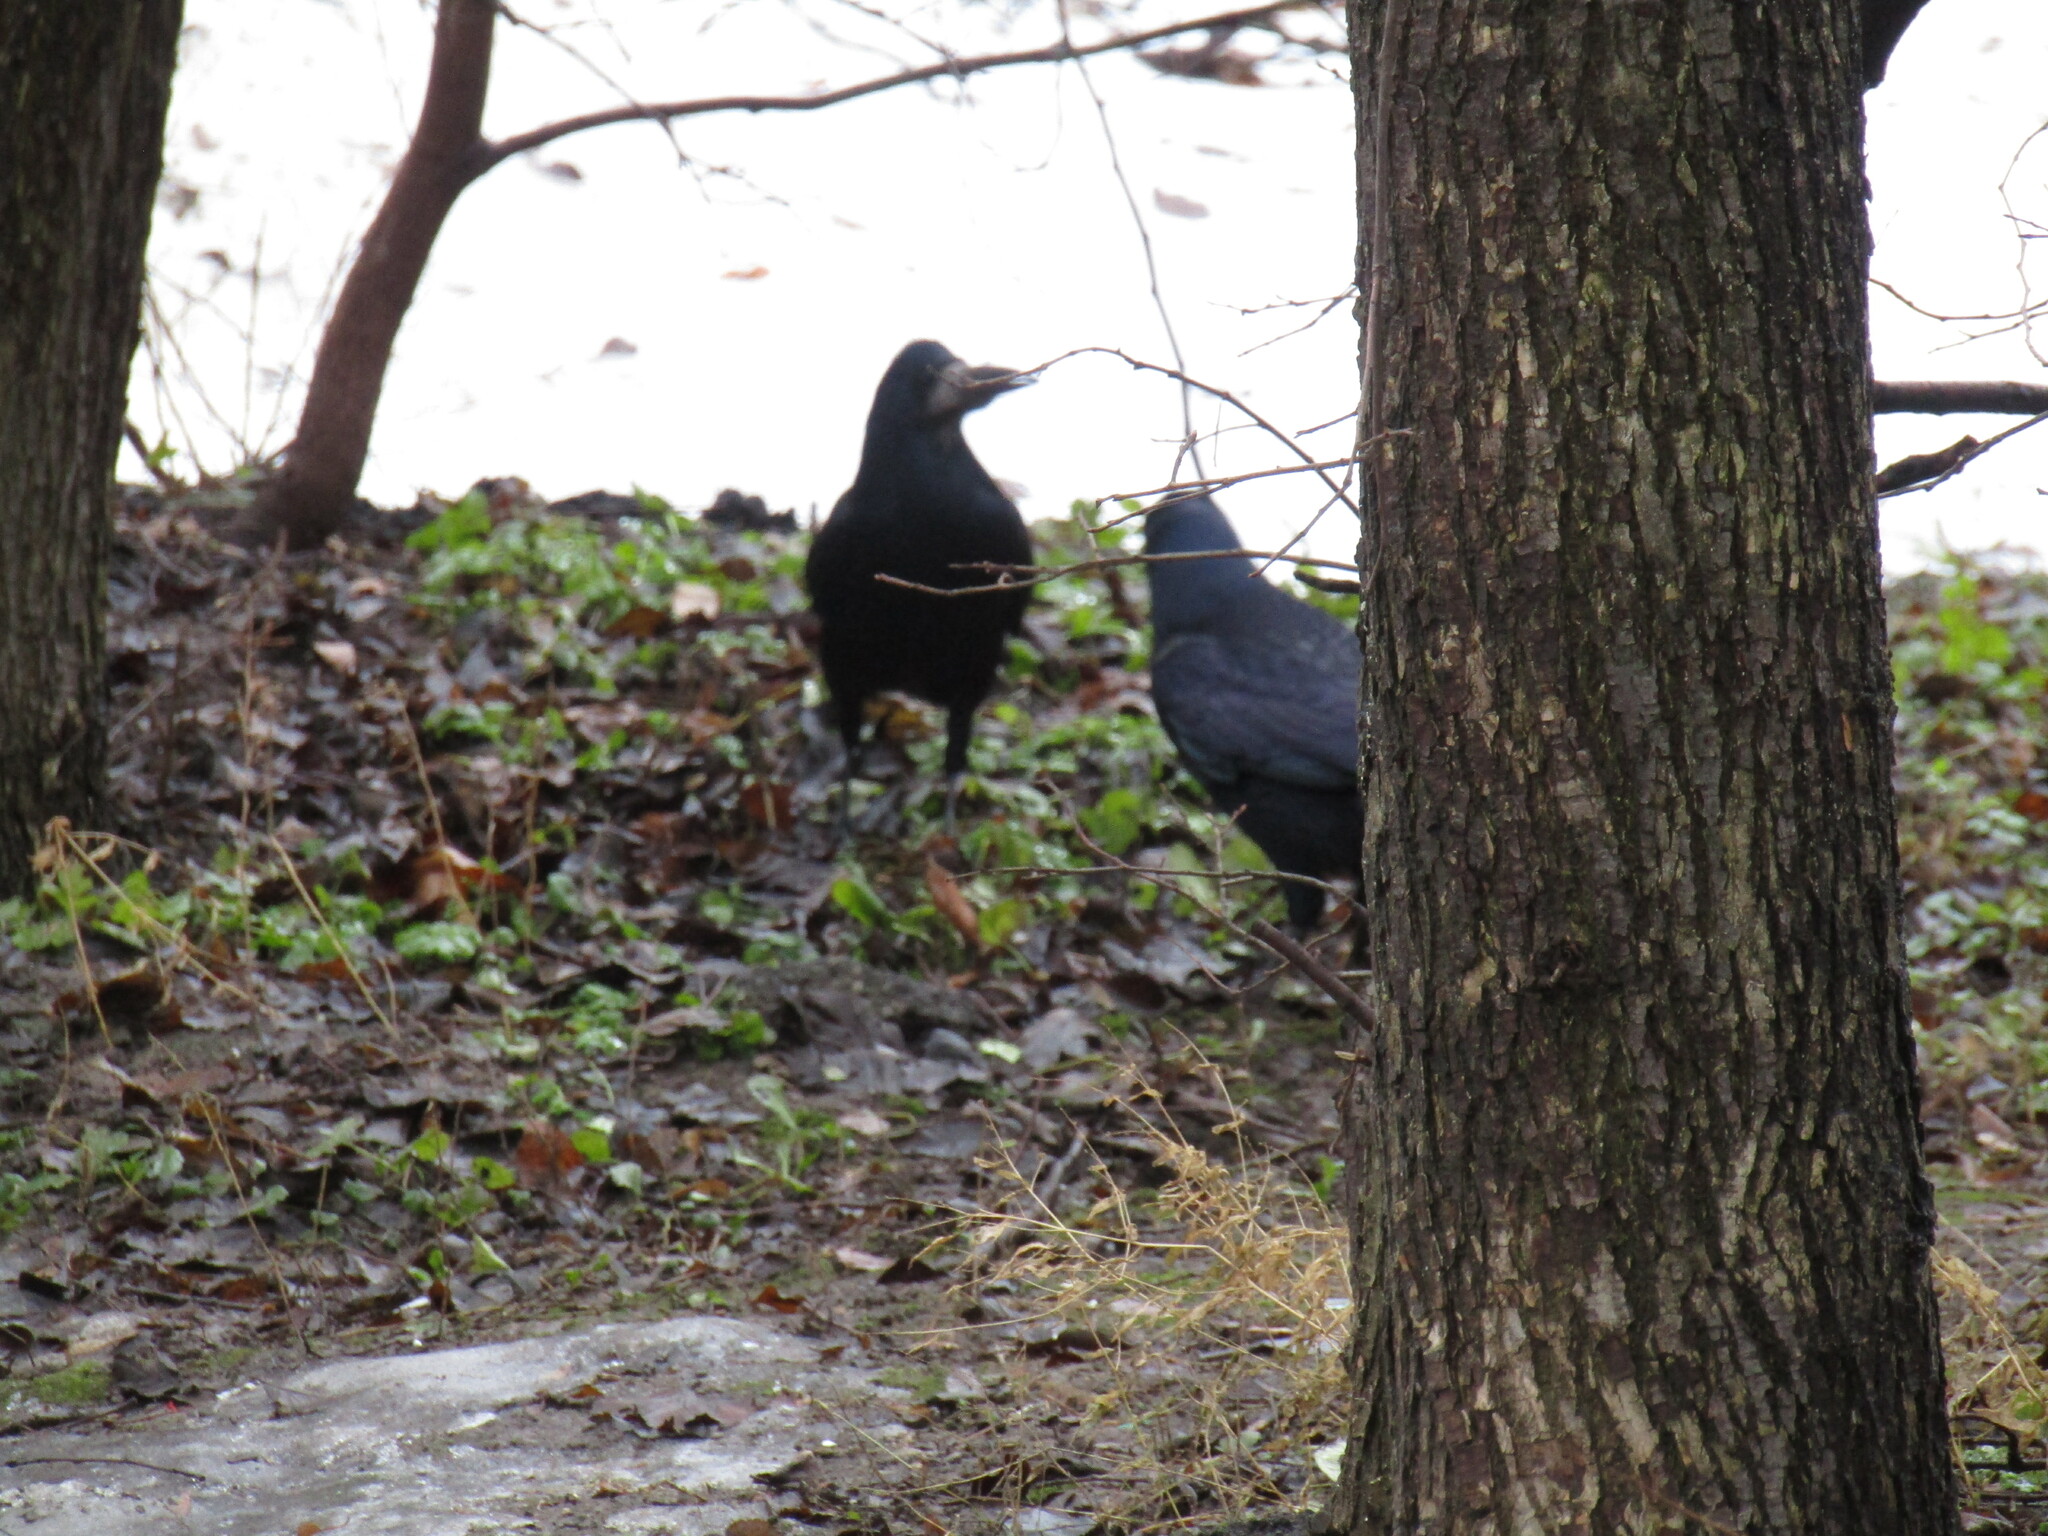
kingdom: Animalia
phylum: Chordata
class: Aves
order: Passeriformes
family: Corvidae
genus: Corvus
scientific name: Corvus frugilegus
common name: Rook
